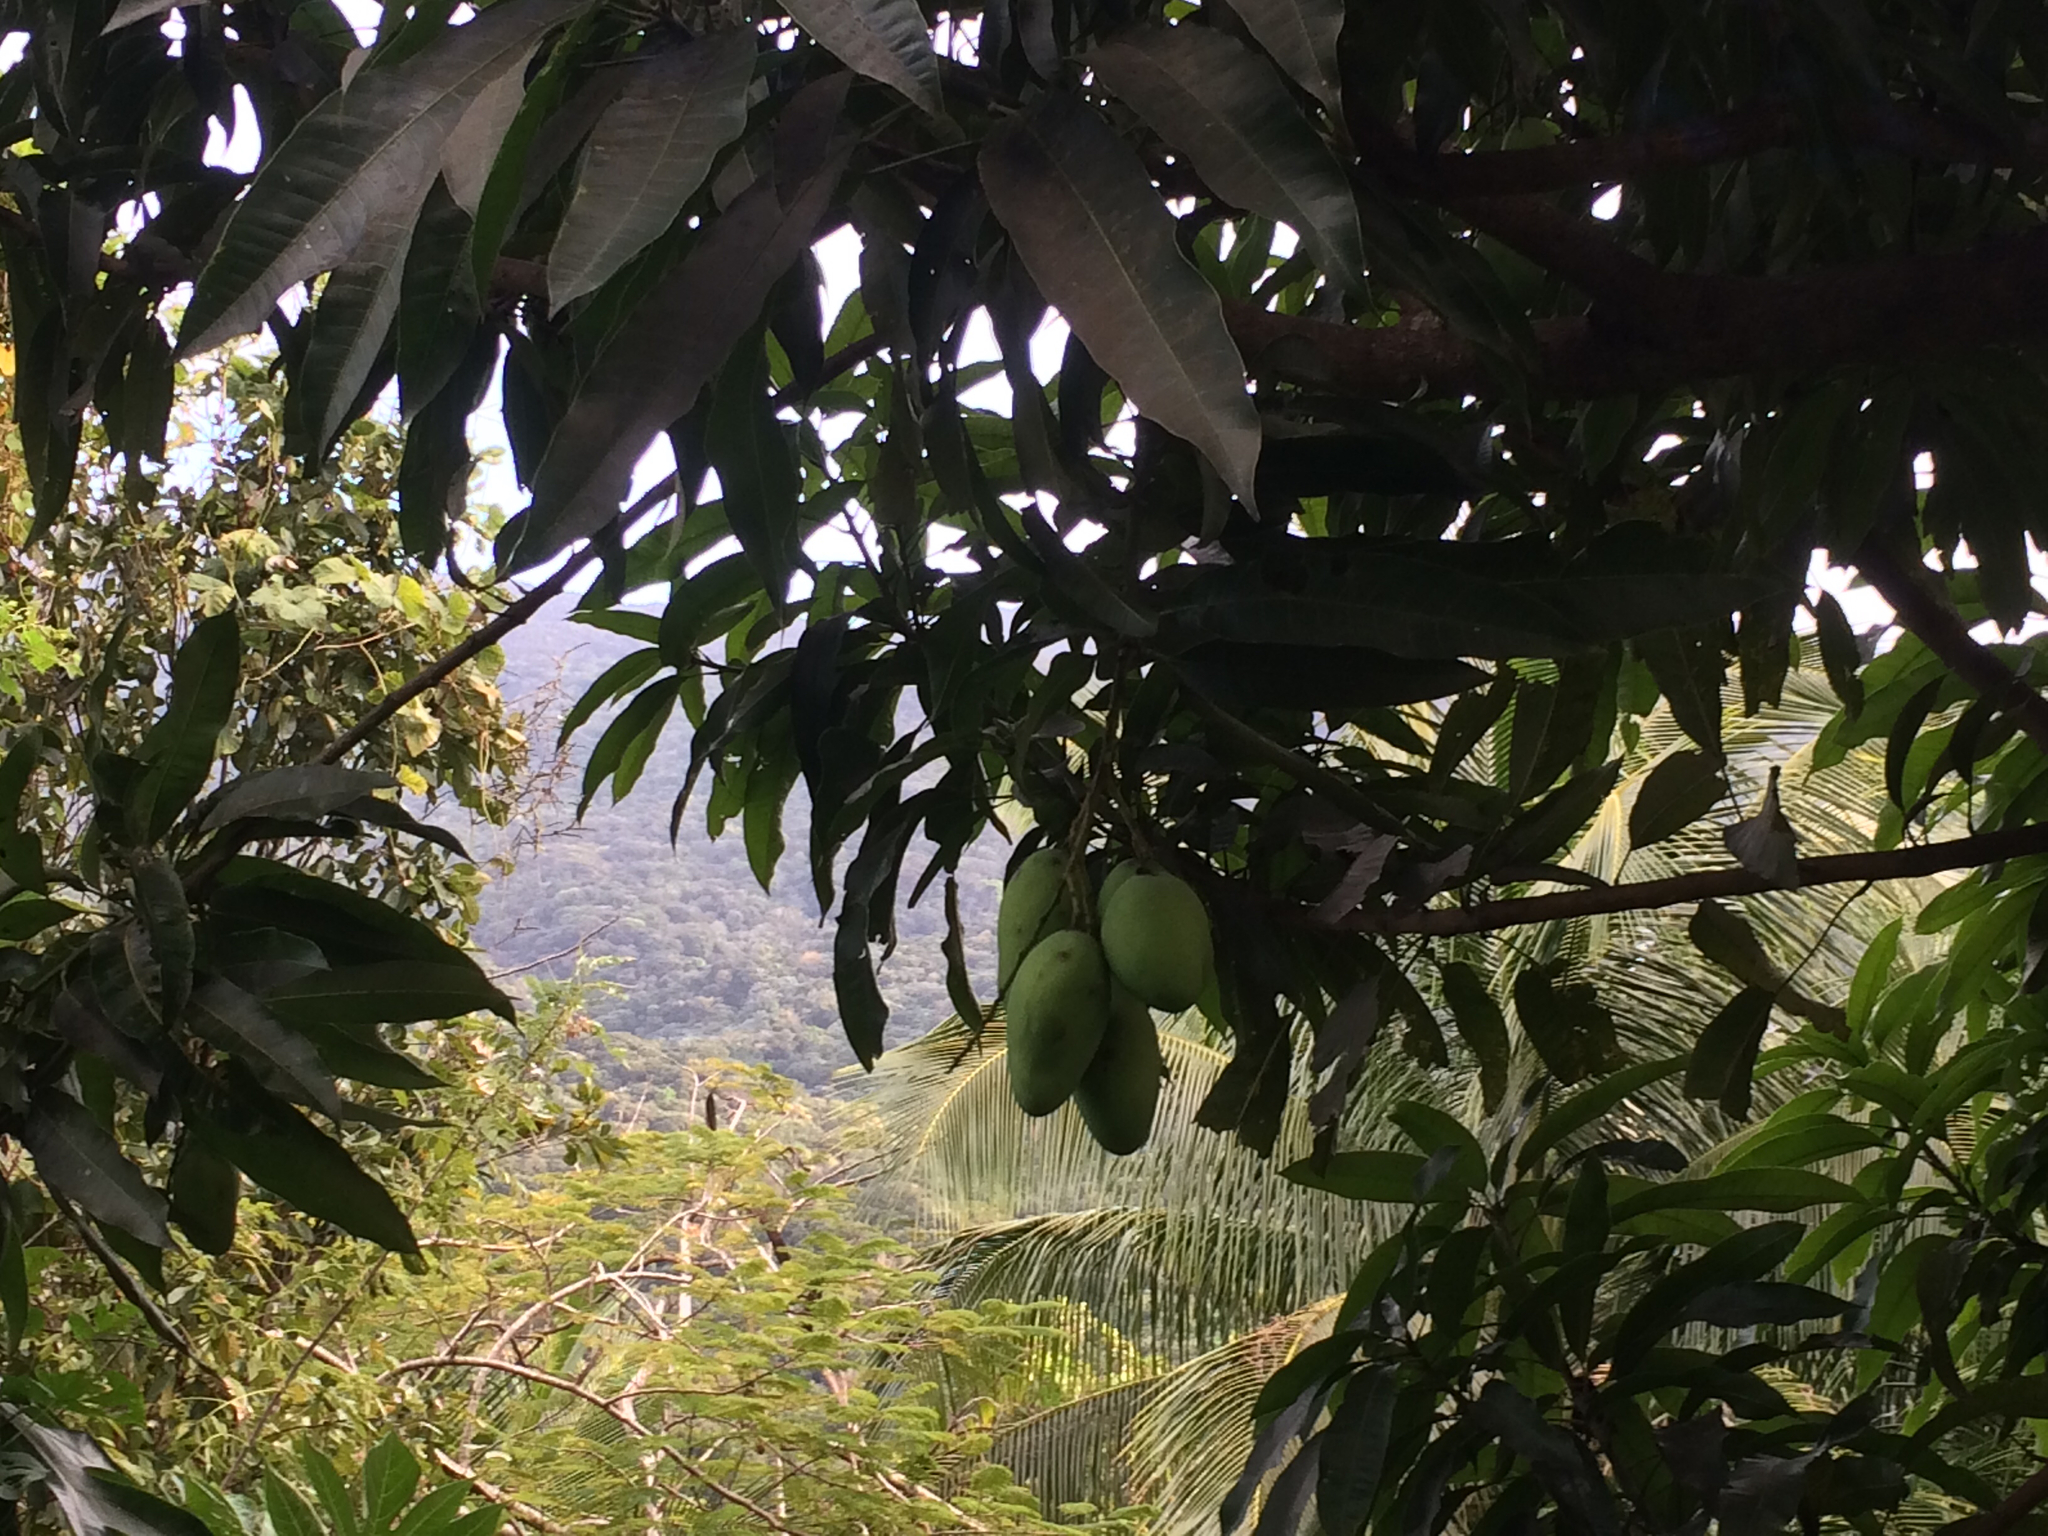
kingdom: Plantae
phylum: Tracheophyta
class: Magnoliopsida
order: Sapindales
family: Anacardiaceae
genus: Mangifera
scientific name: Mangifera indica
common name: Mango
